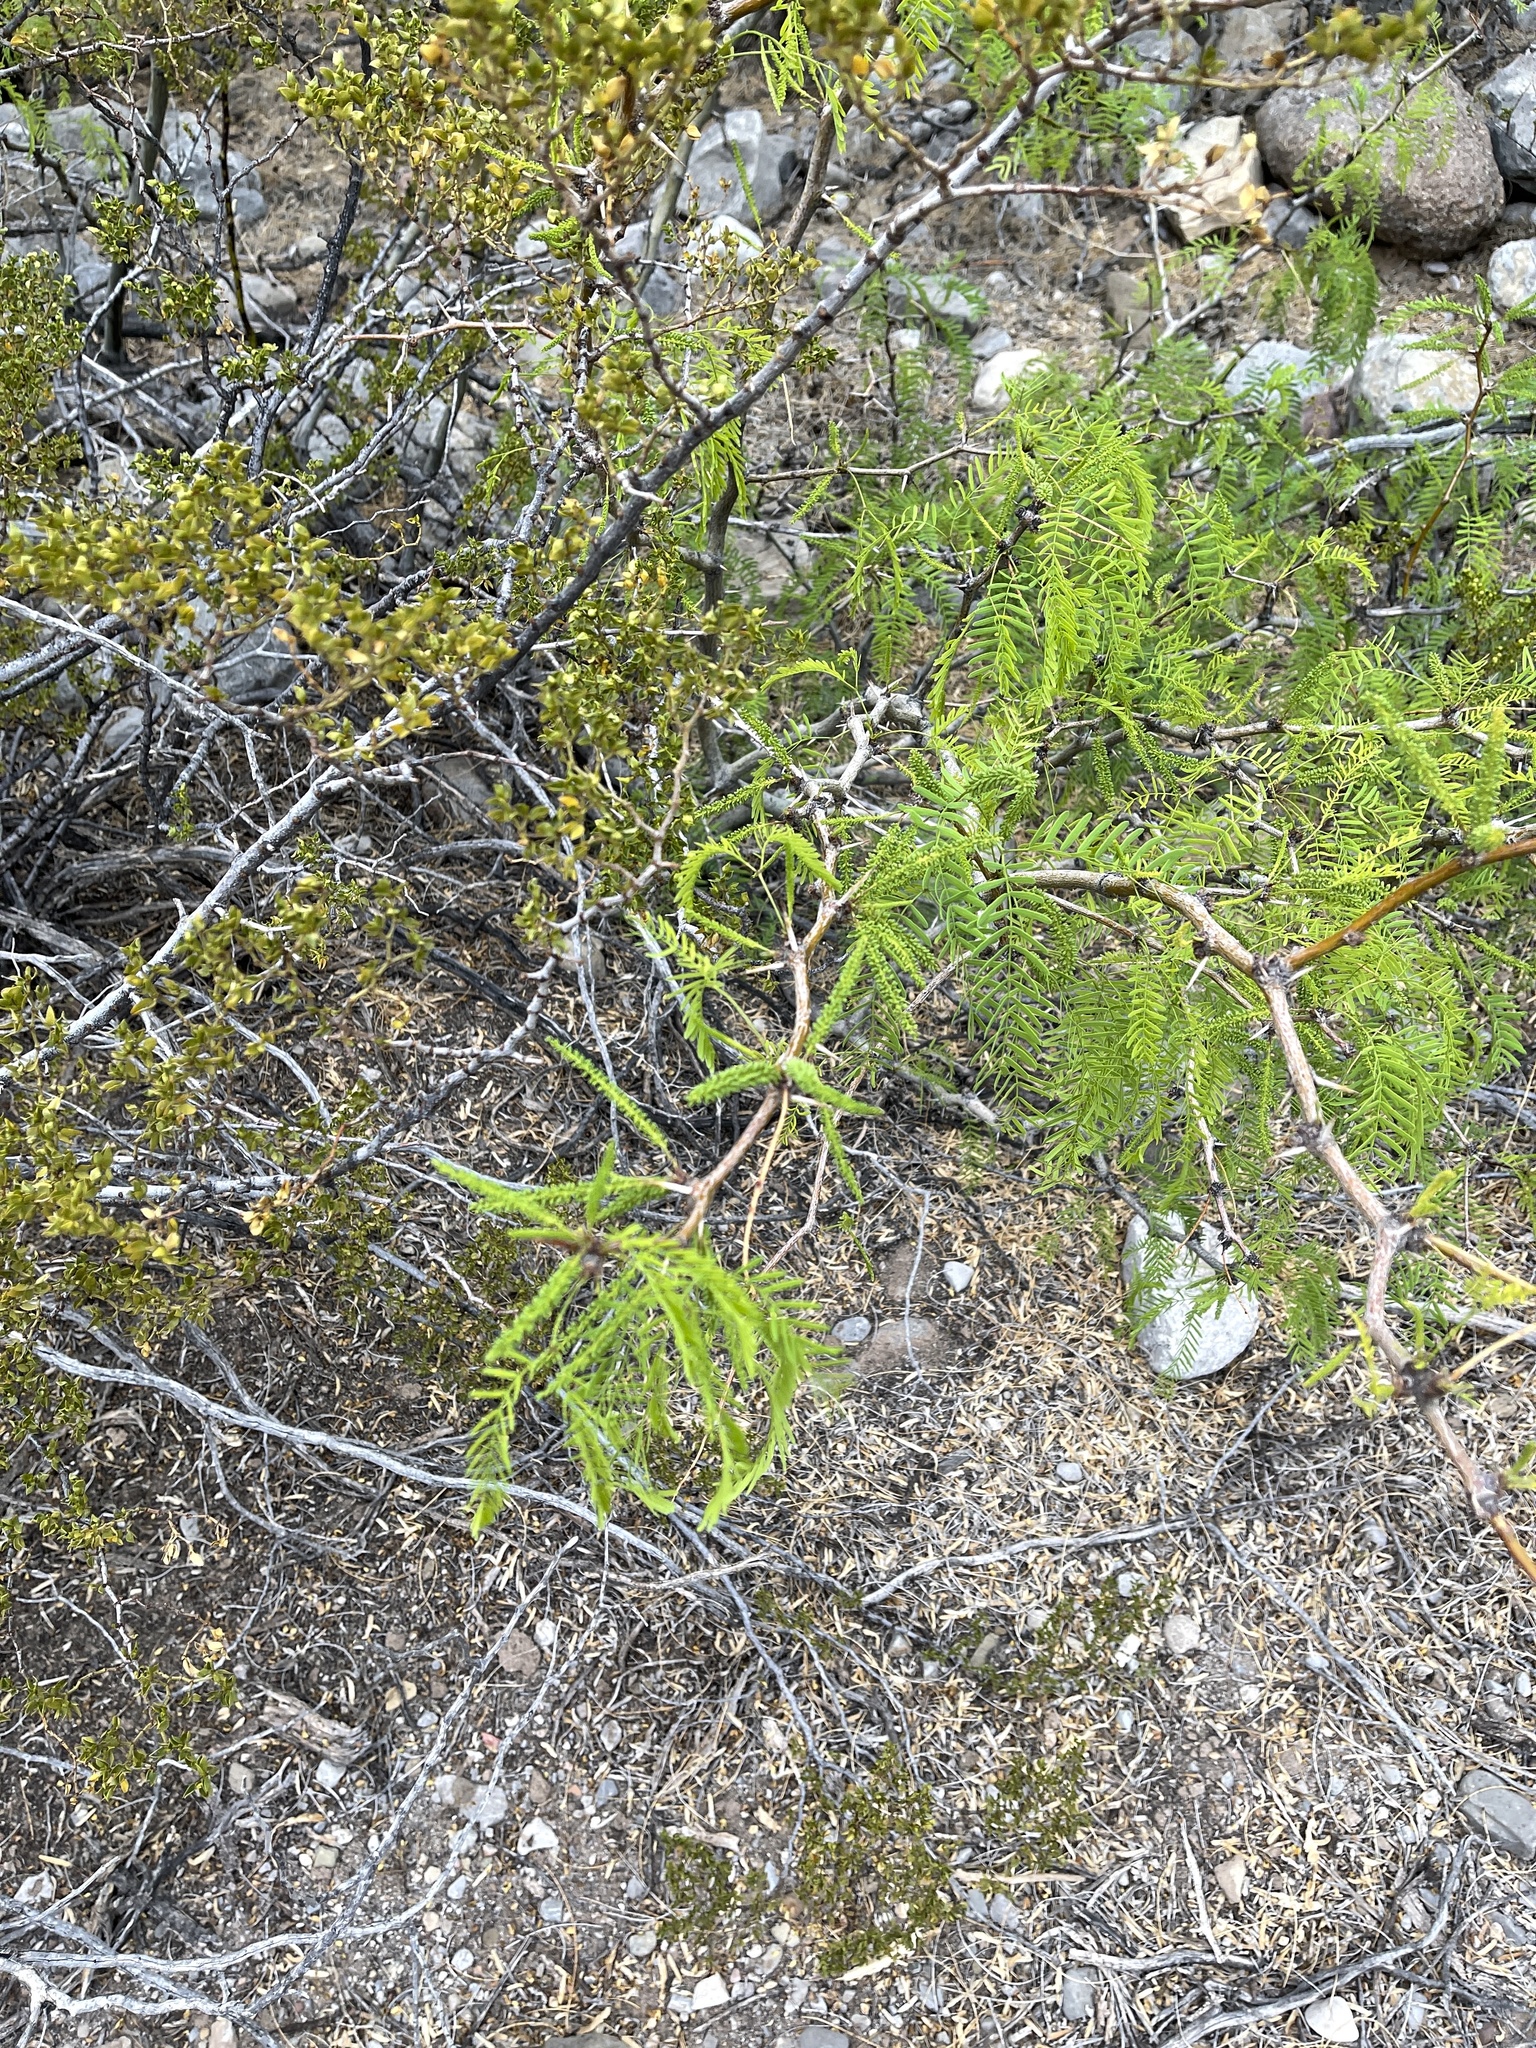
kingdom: Plantae
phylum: Tracheophyta
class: Magnoliopsida
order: Fabales
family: Fabaceae
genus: Prosopis
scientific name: Prosopis glandulosa
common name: Honey mesquite
